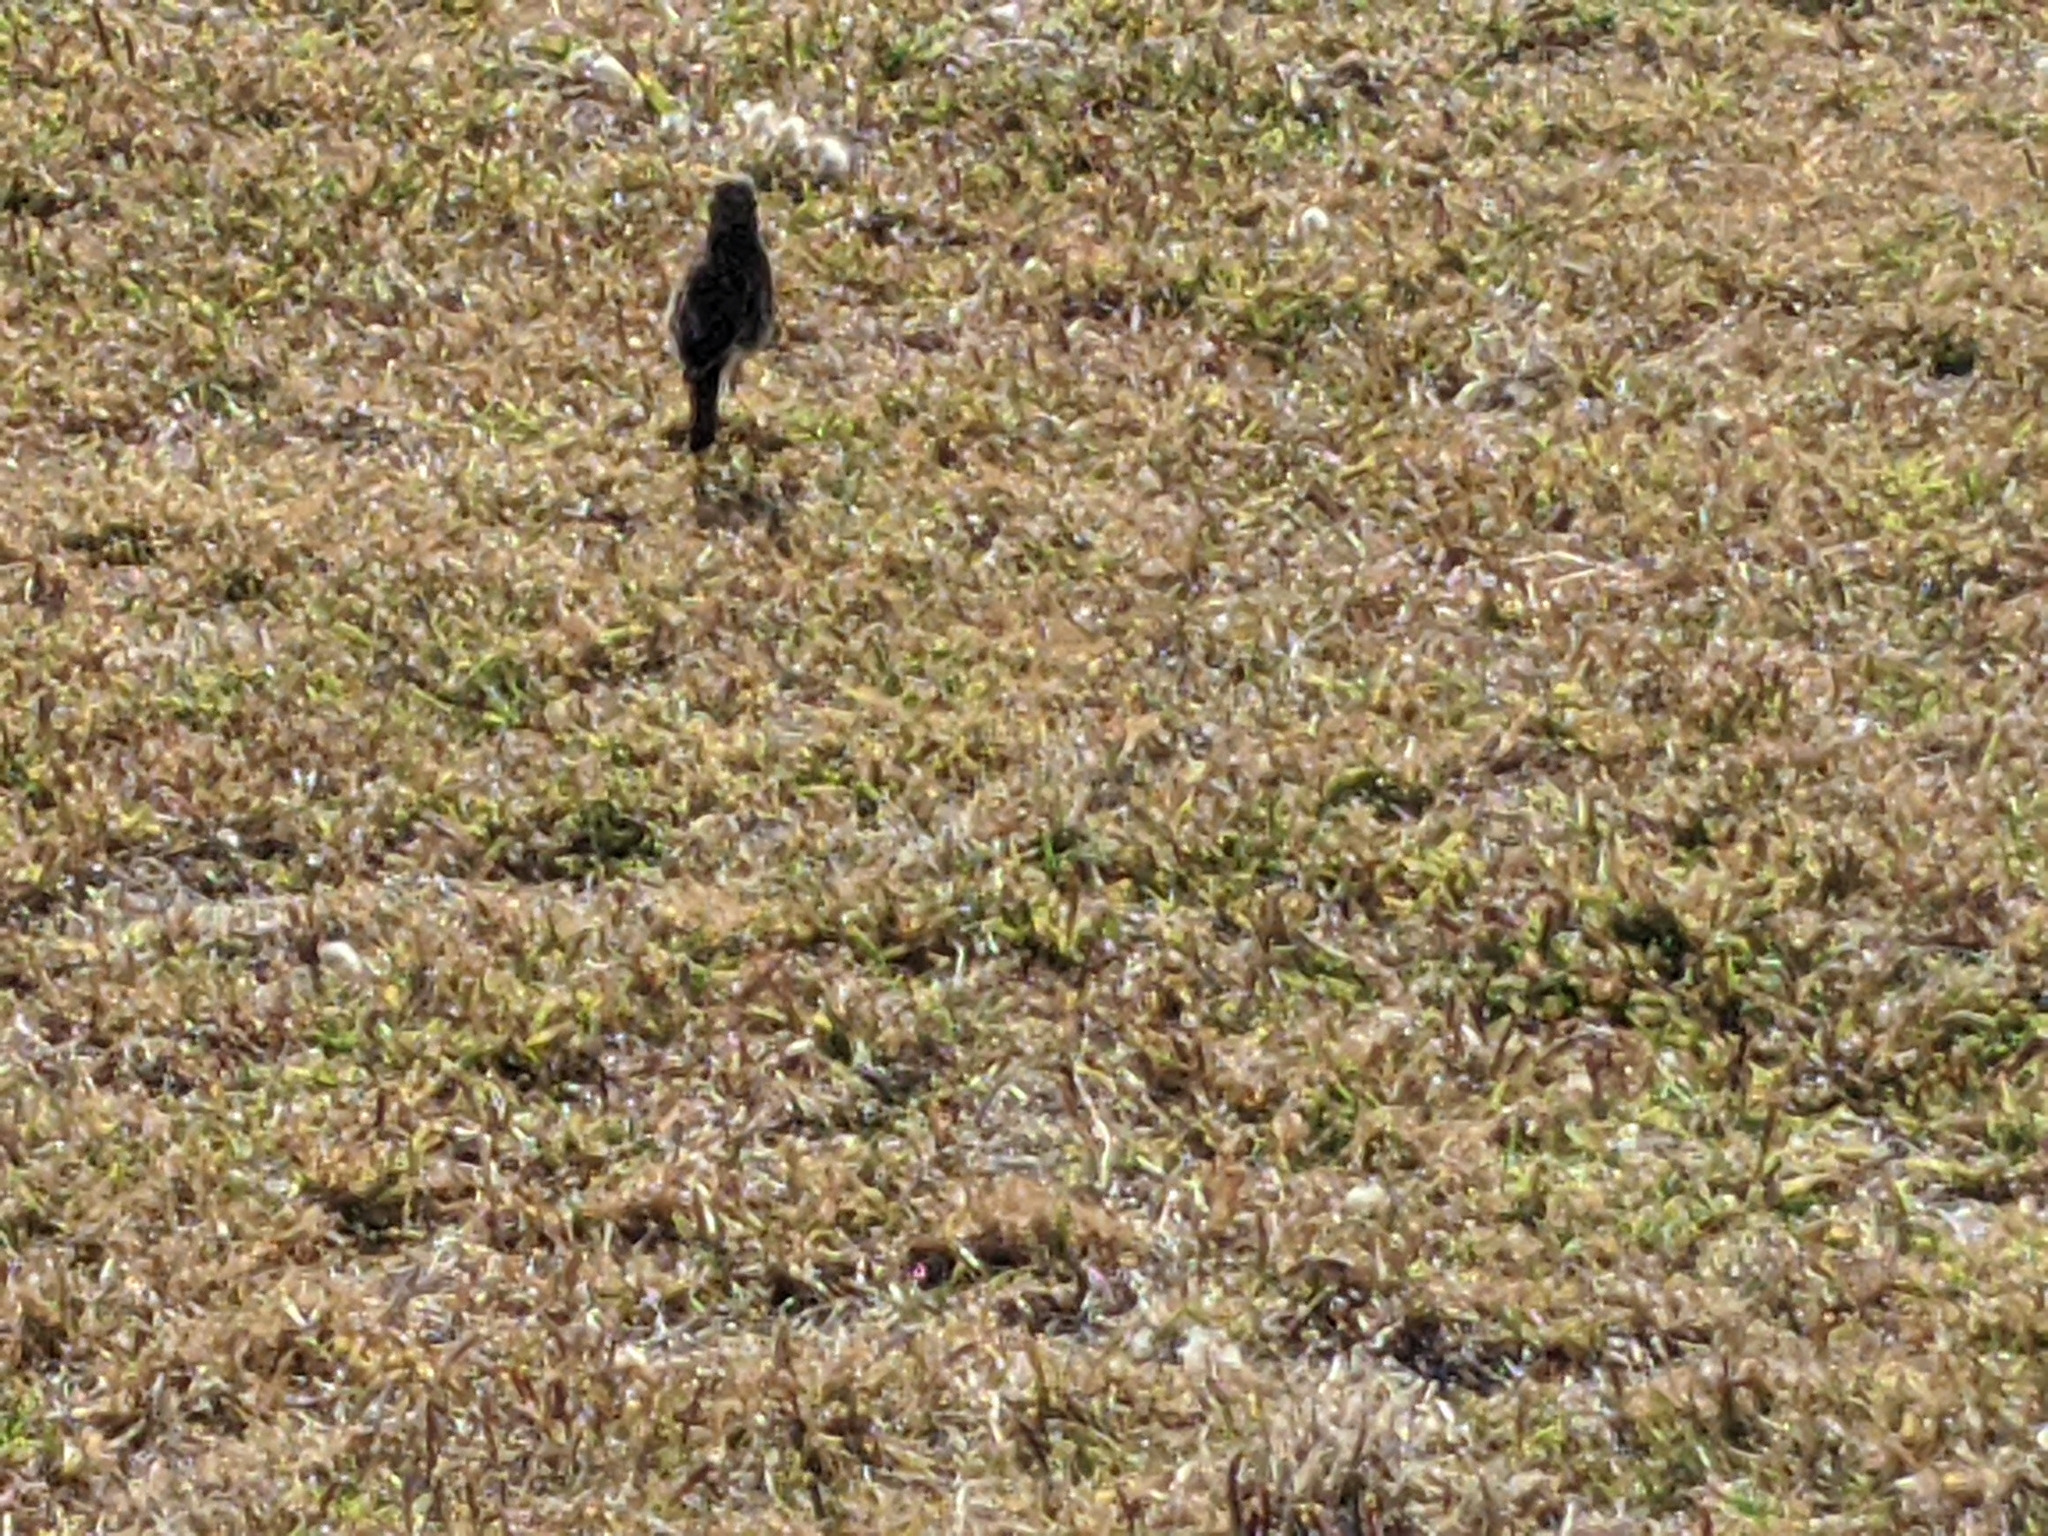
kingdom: Animalia
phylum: Chordata
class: Aves
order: Passeriformes
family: Motacillidae
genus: Anthus
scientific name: Anthus australis
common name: Australian pipit
